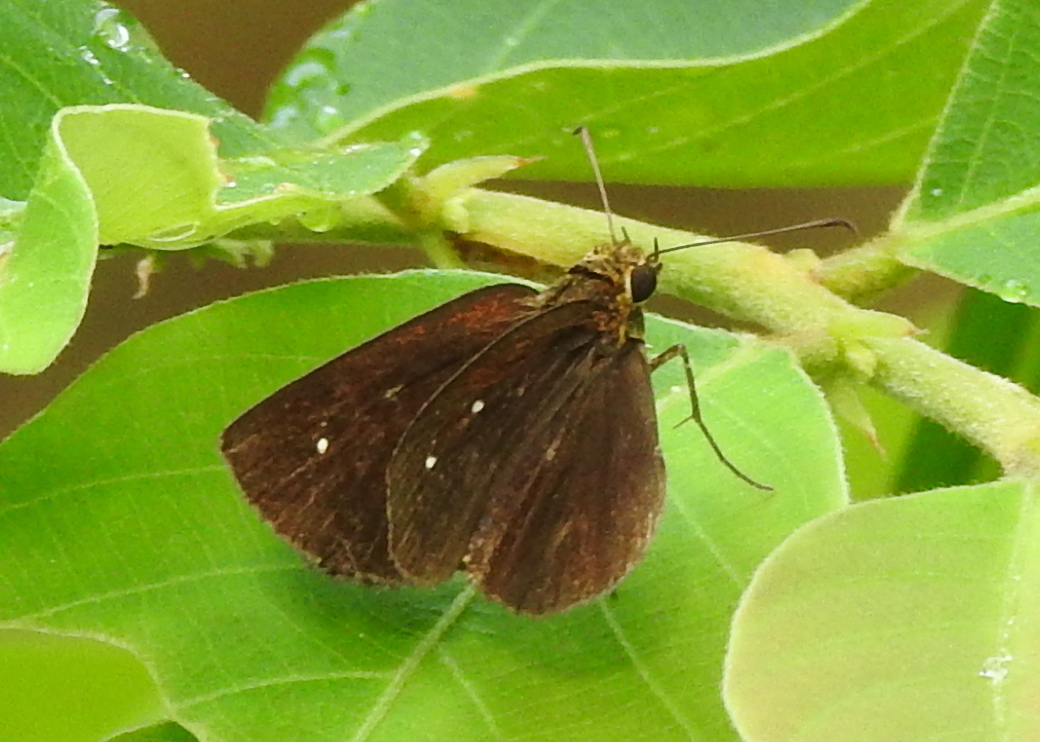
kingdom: Animalia
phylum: Arthropoda
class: Insecta
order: Lepidoptera
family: Hesperiidae
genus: Iambrix
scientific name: Iambrix salsala
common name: Chestnut bob
